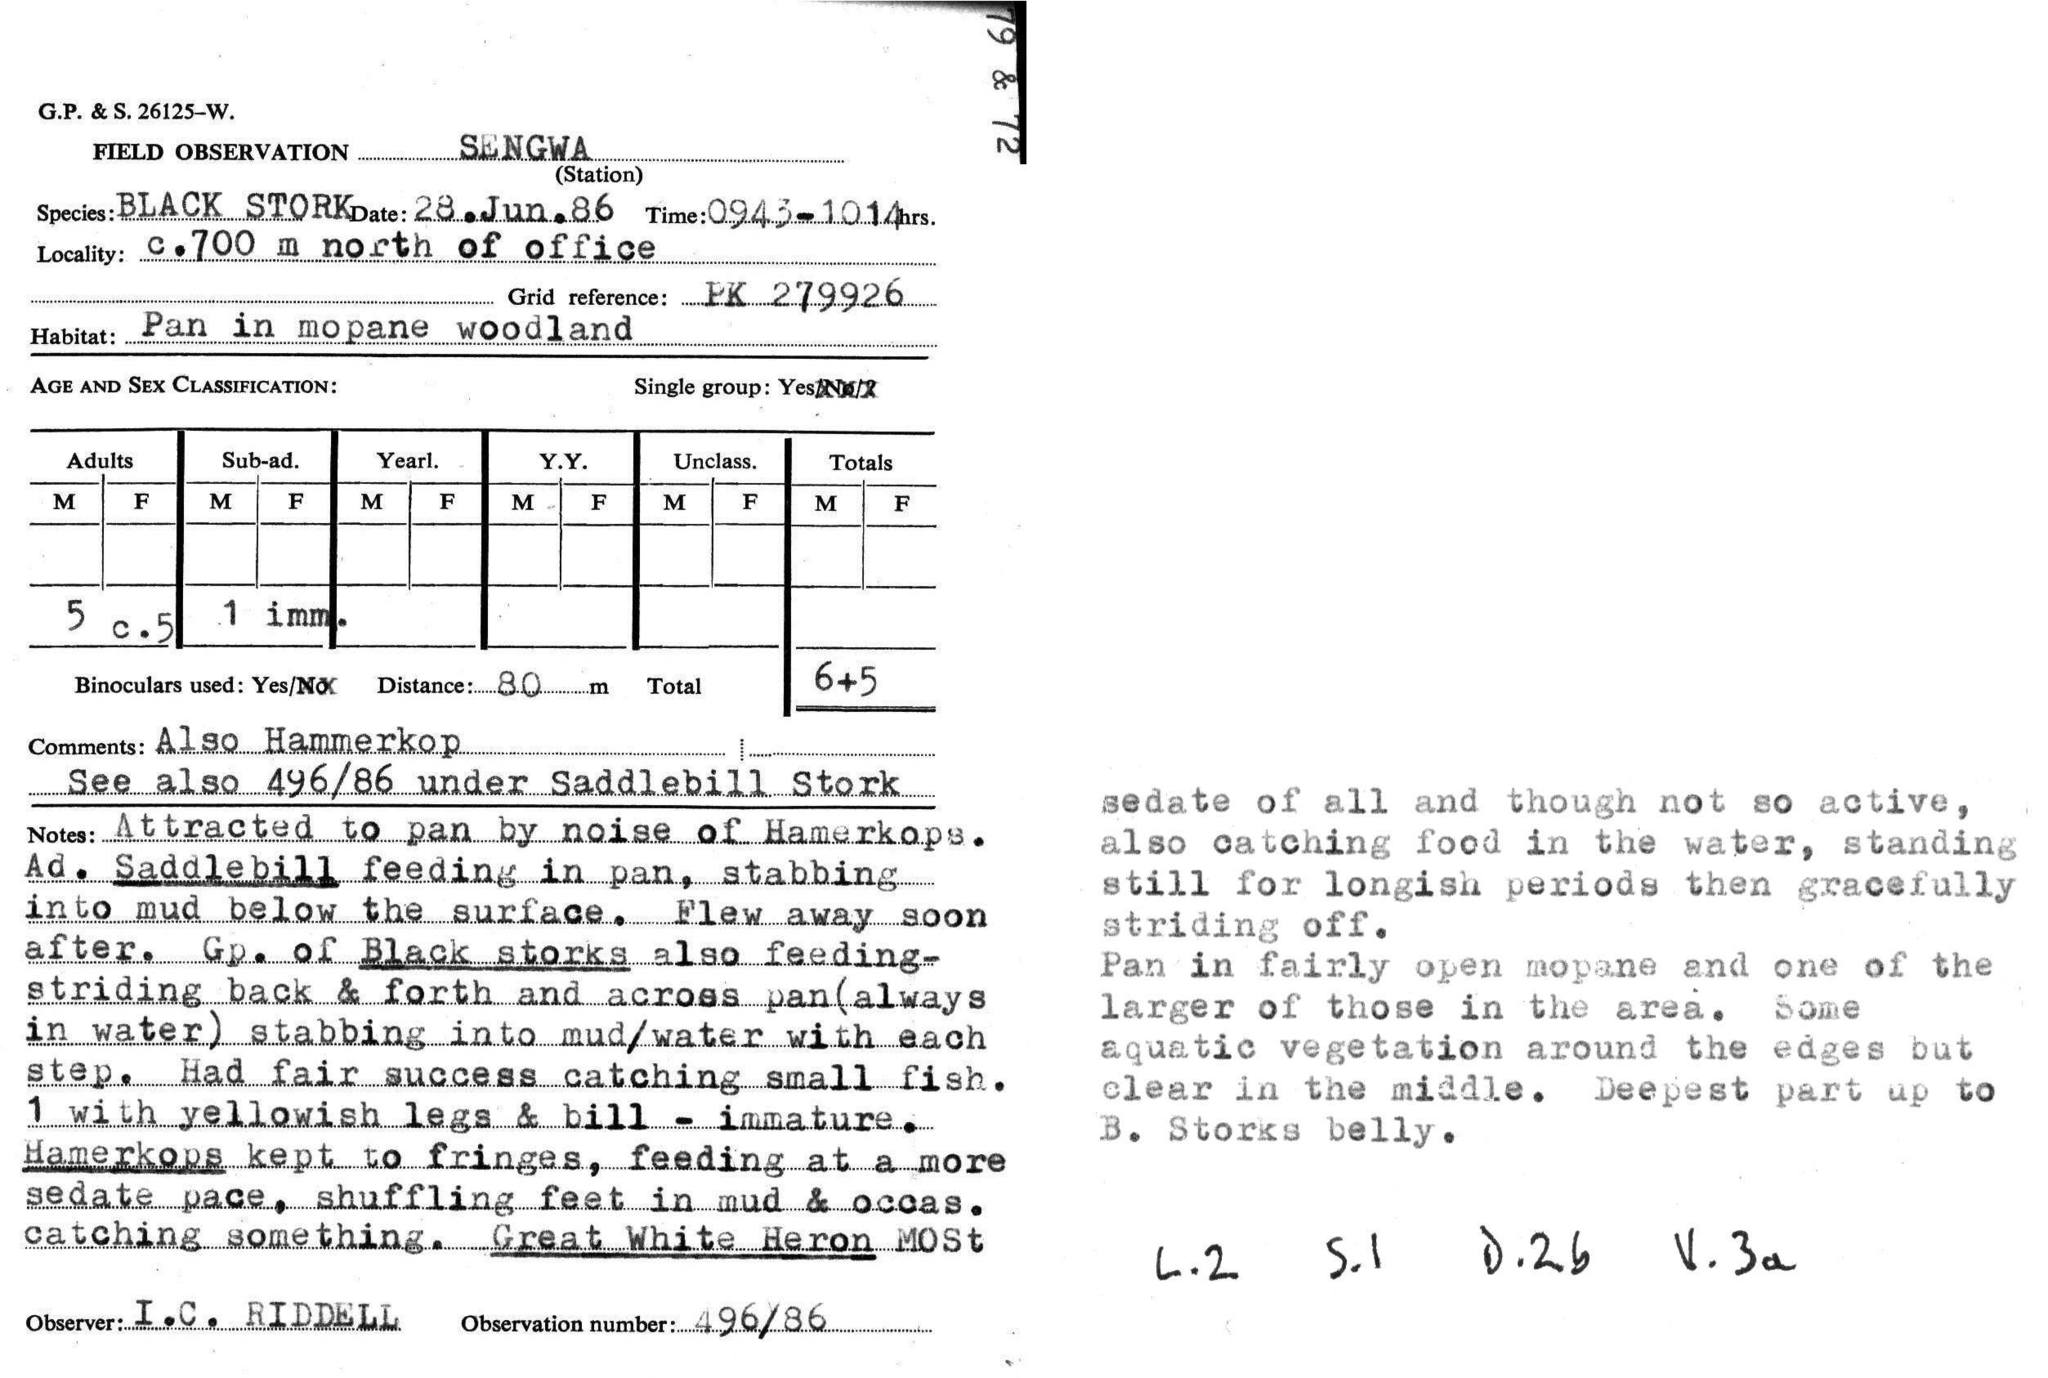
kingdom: Animalia
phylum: Chordata
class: Aves
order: Ciconiiformes
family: Ciconiidae
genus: Ciconia
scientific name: Ciconia nigra
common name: Black stork
